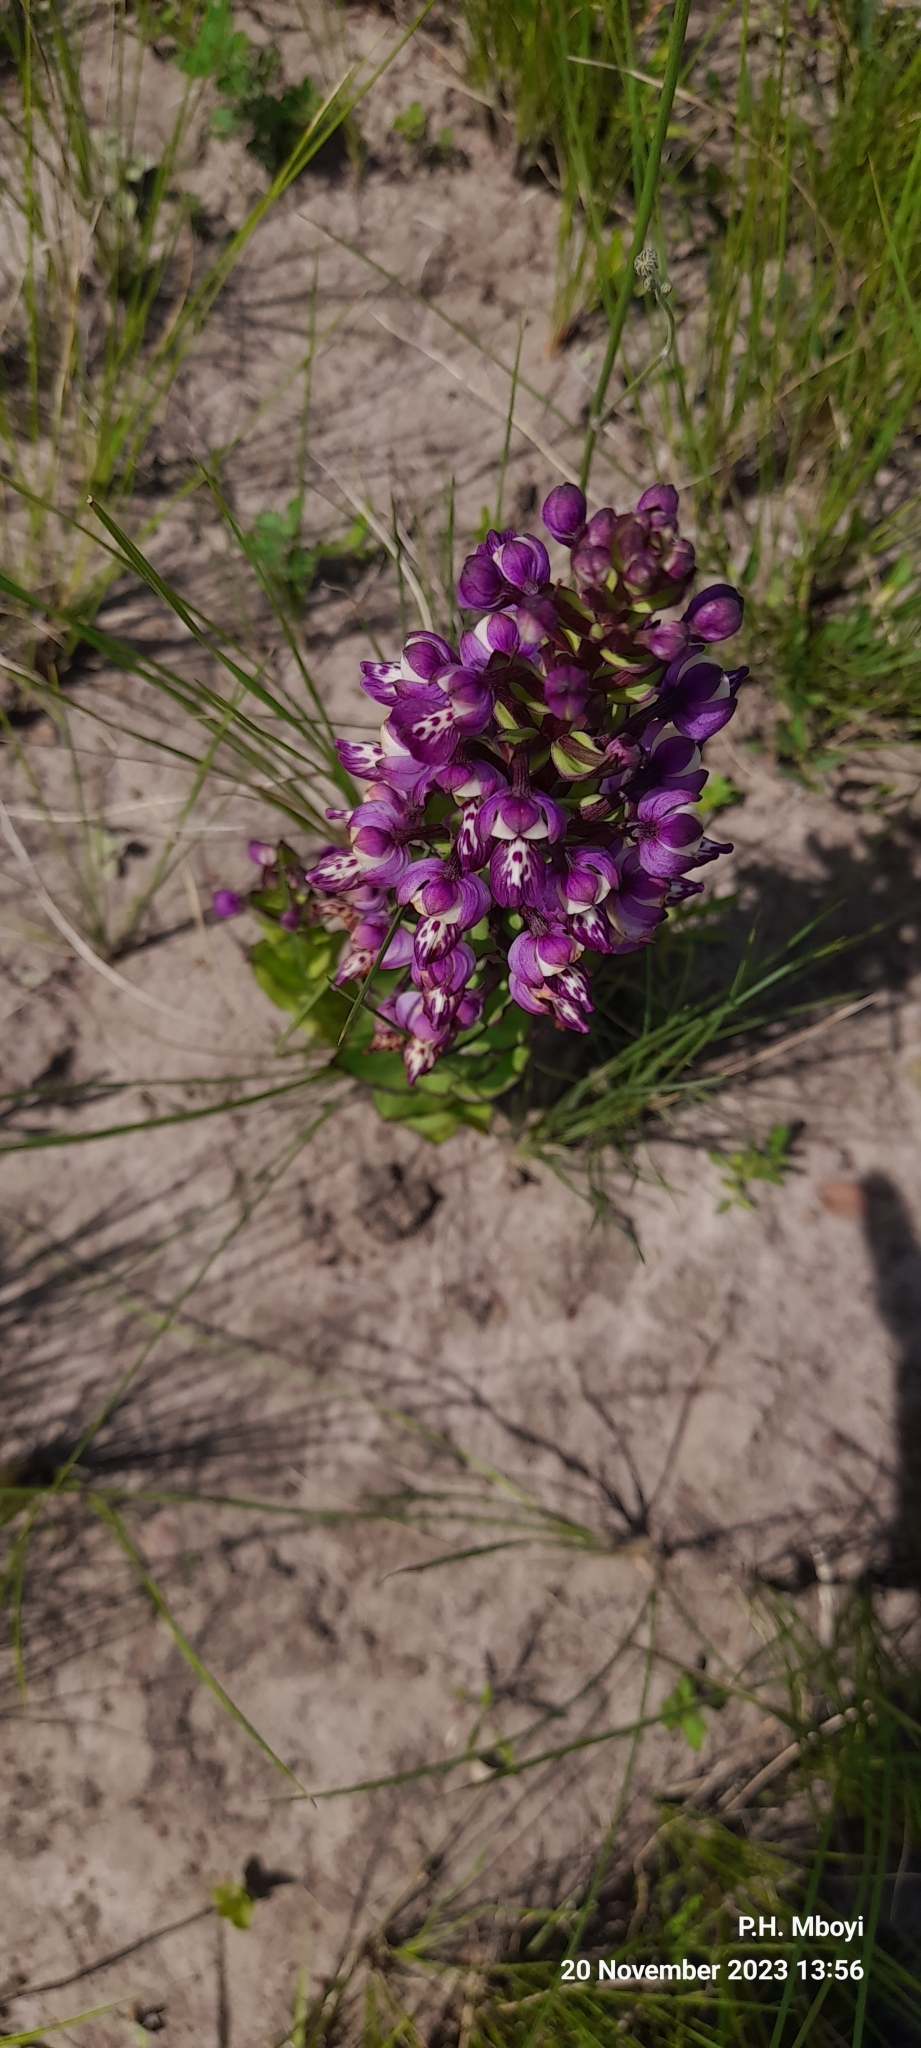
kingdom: Plantae
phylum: Tracheophyta
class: Liliopsida
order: Asparagales
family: Orchidaceae
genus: Brachycorythis
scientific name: Brachycorythis ovata
